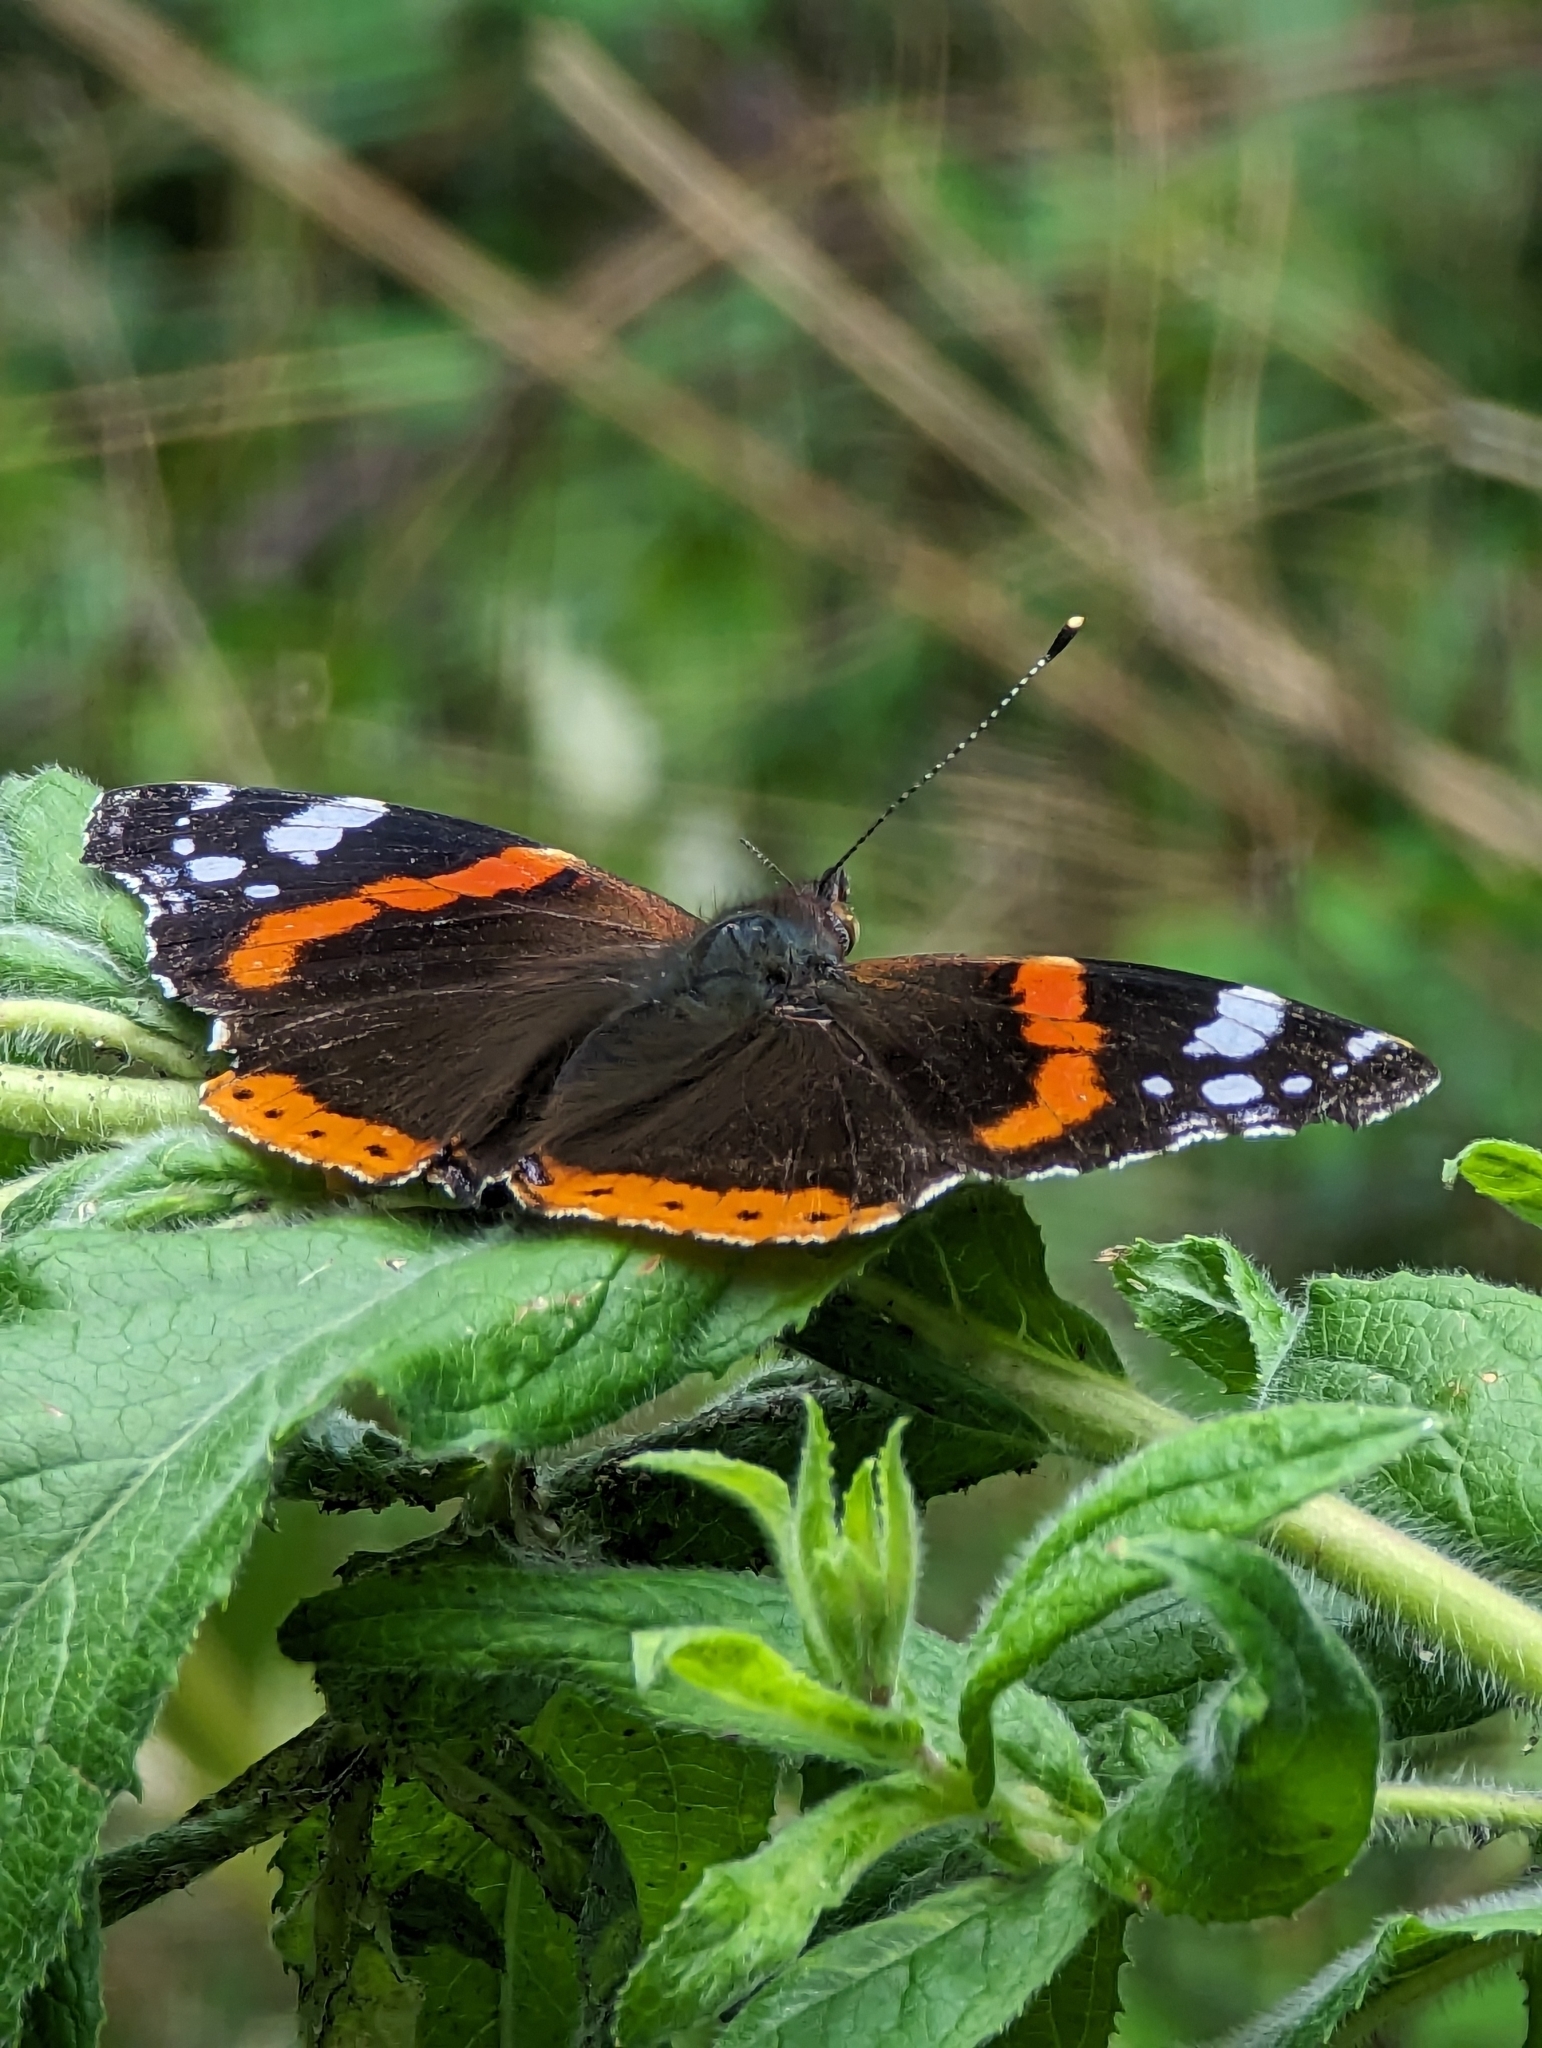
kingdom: Animalia
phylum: Arthropoda
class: Insecta
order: Lepidoptera
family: Nymphalidae
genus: Vanessa
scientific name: Vanessa atalanta
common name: Red admiral
